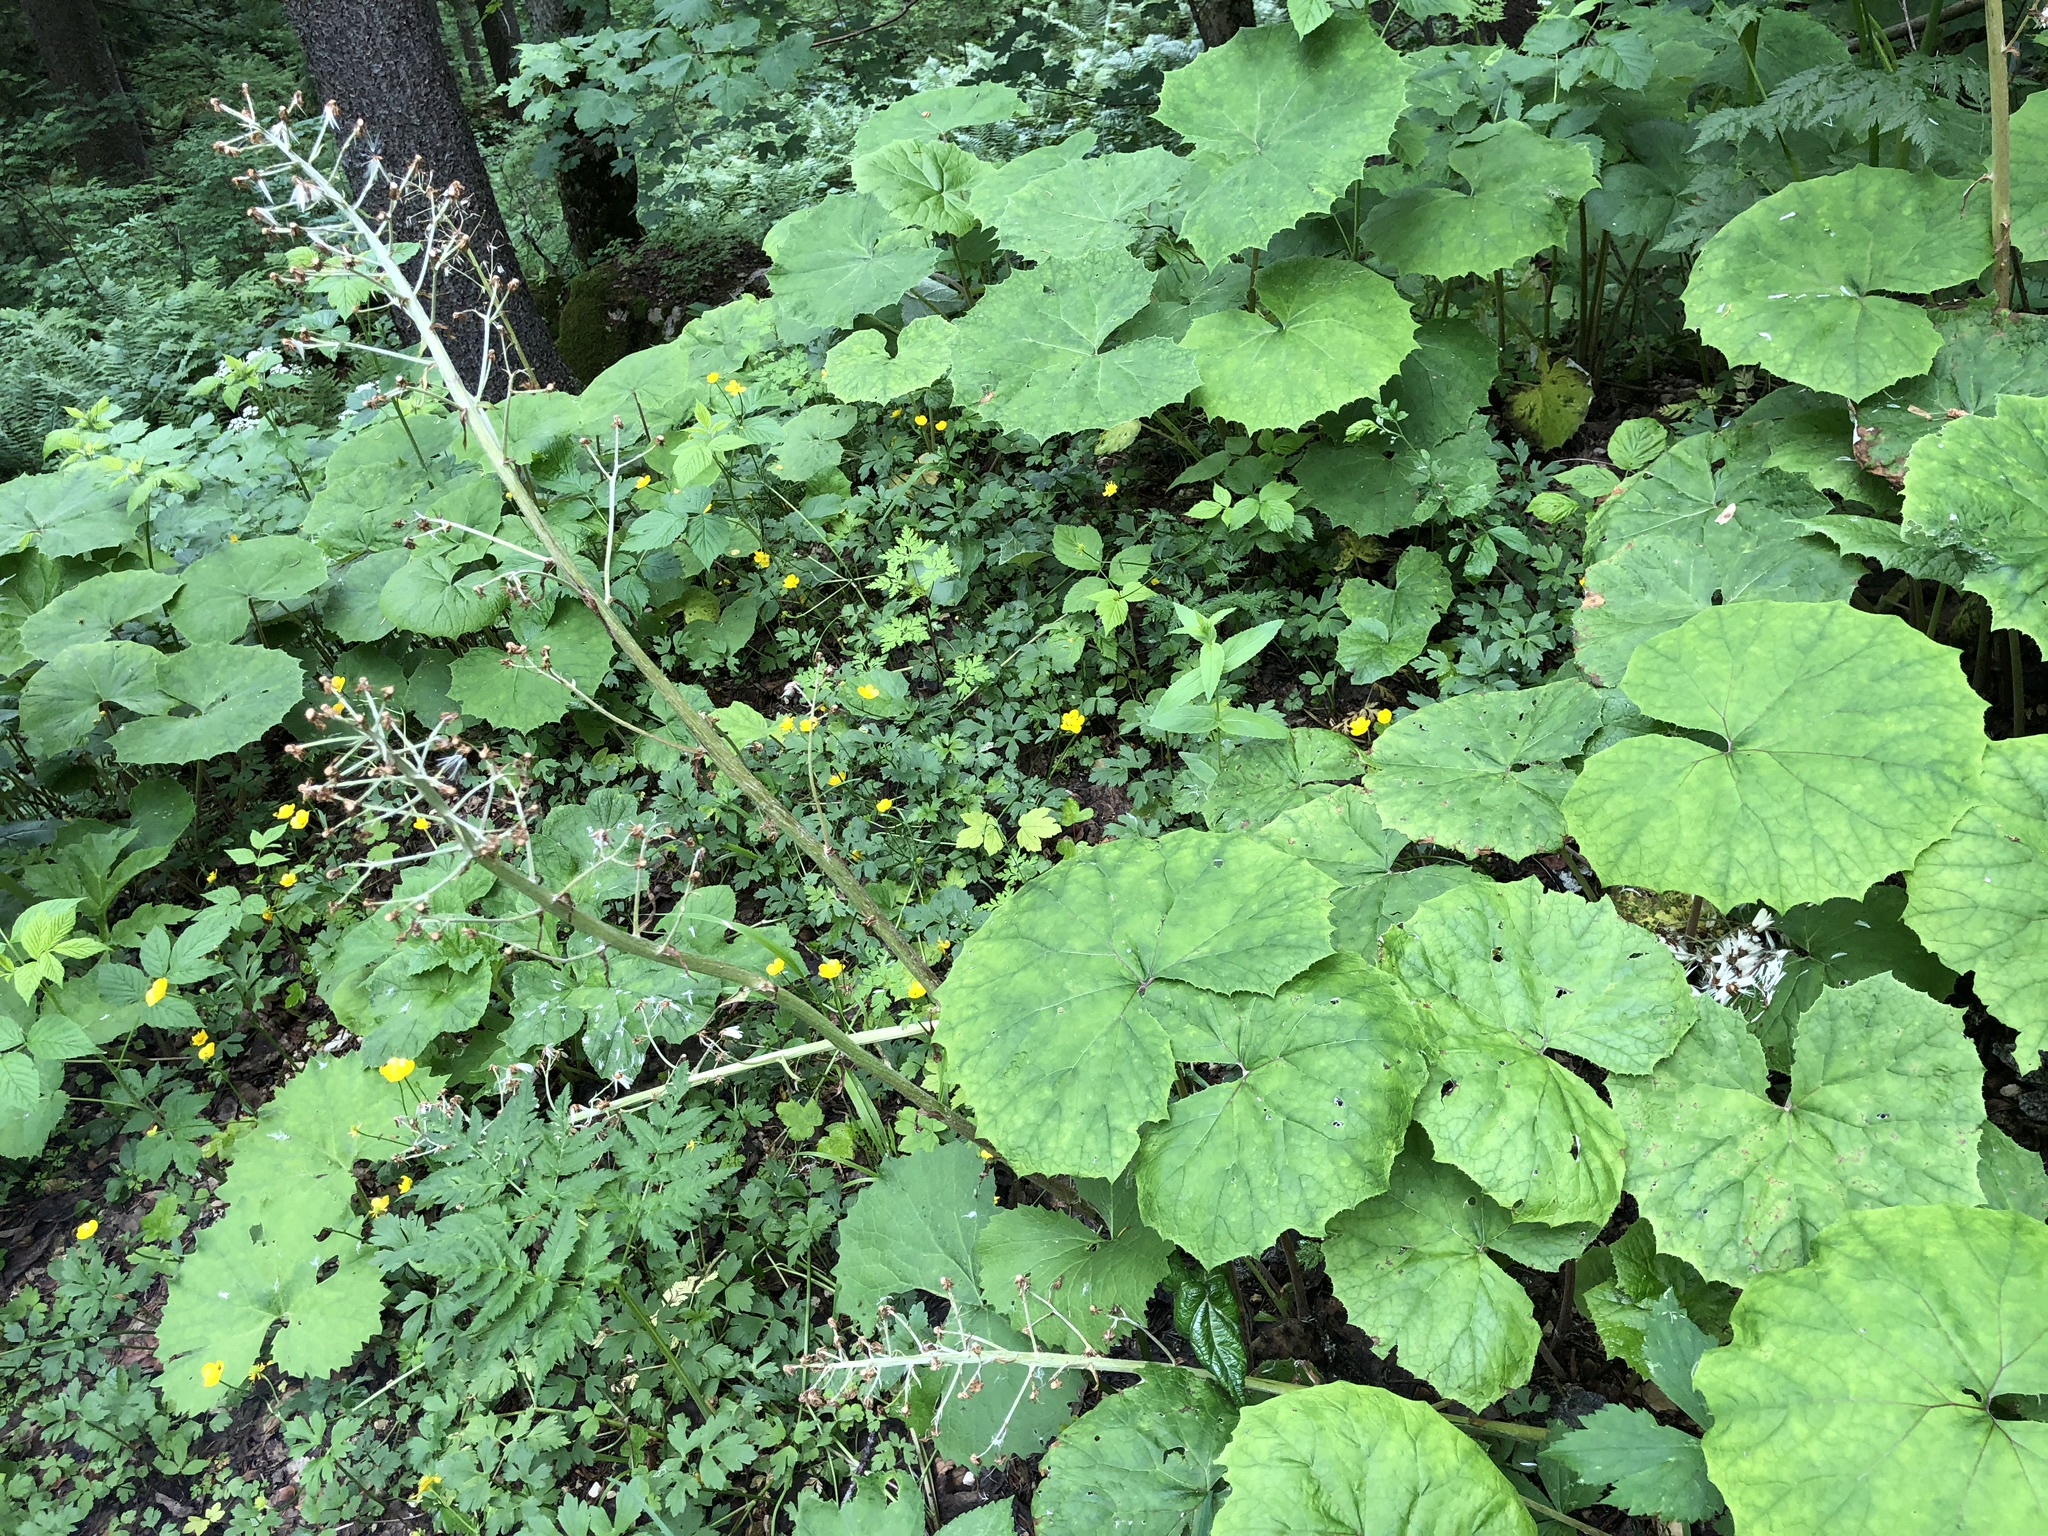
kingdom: Plantae
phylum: Tracheophyta
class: Magnoliopsida
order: Asterales
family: Asteraceae
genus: Petasites
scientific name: Petasites albus
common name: White butterbur
